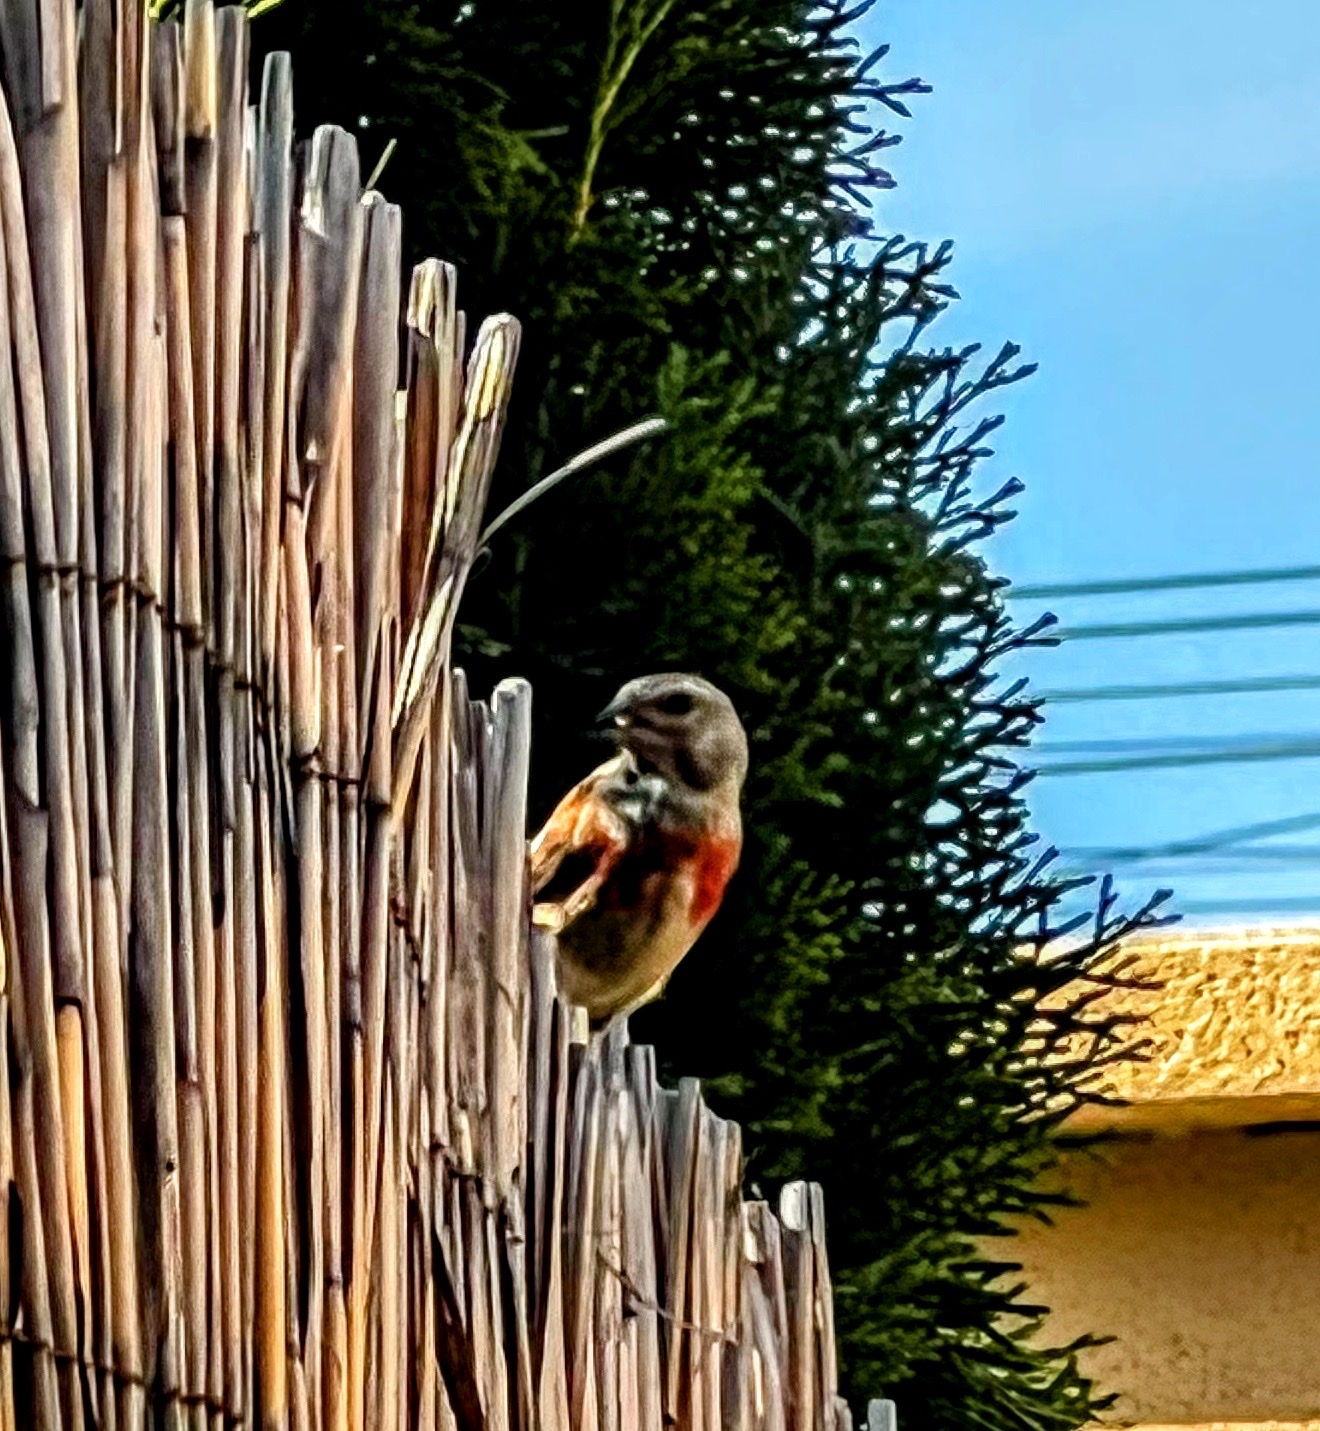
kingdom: Animalia
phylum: Chordata
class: Aves
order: Passeriformes
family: Fringillidae
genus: Linaria
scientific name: Linaria cannabina
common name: Common linnet
